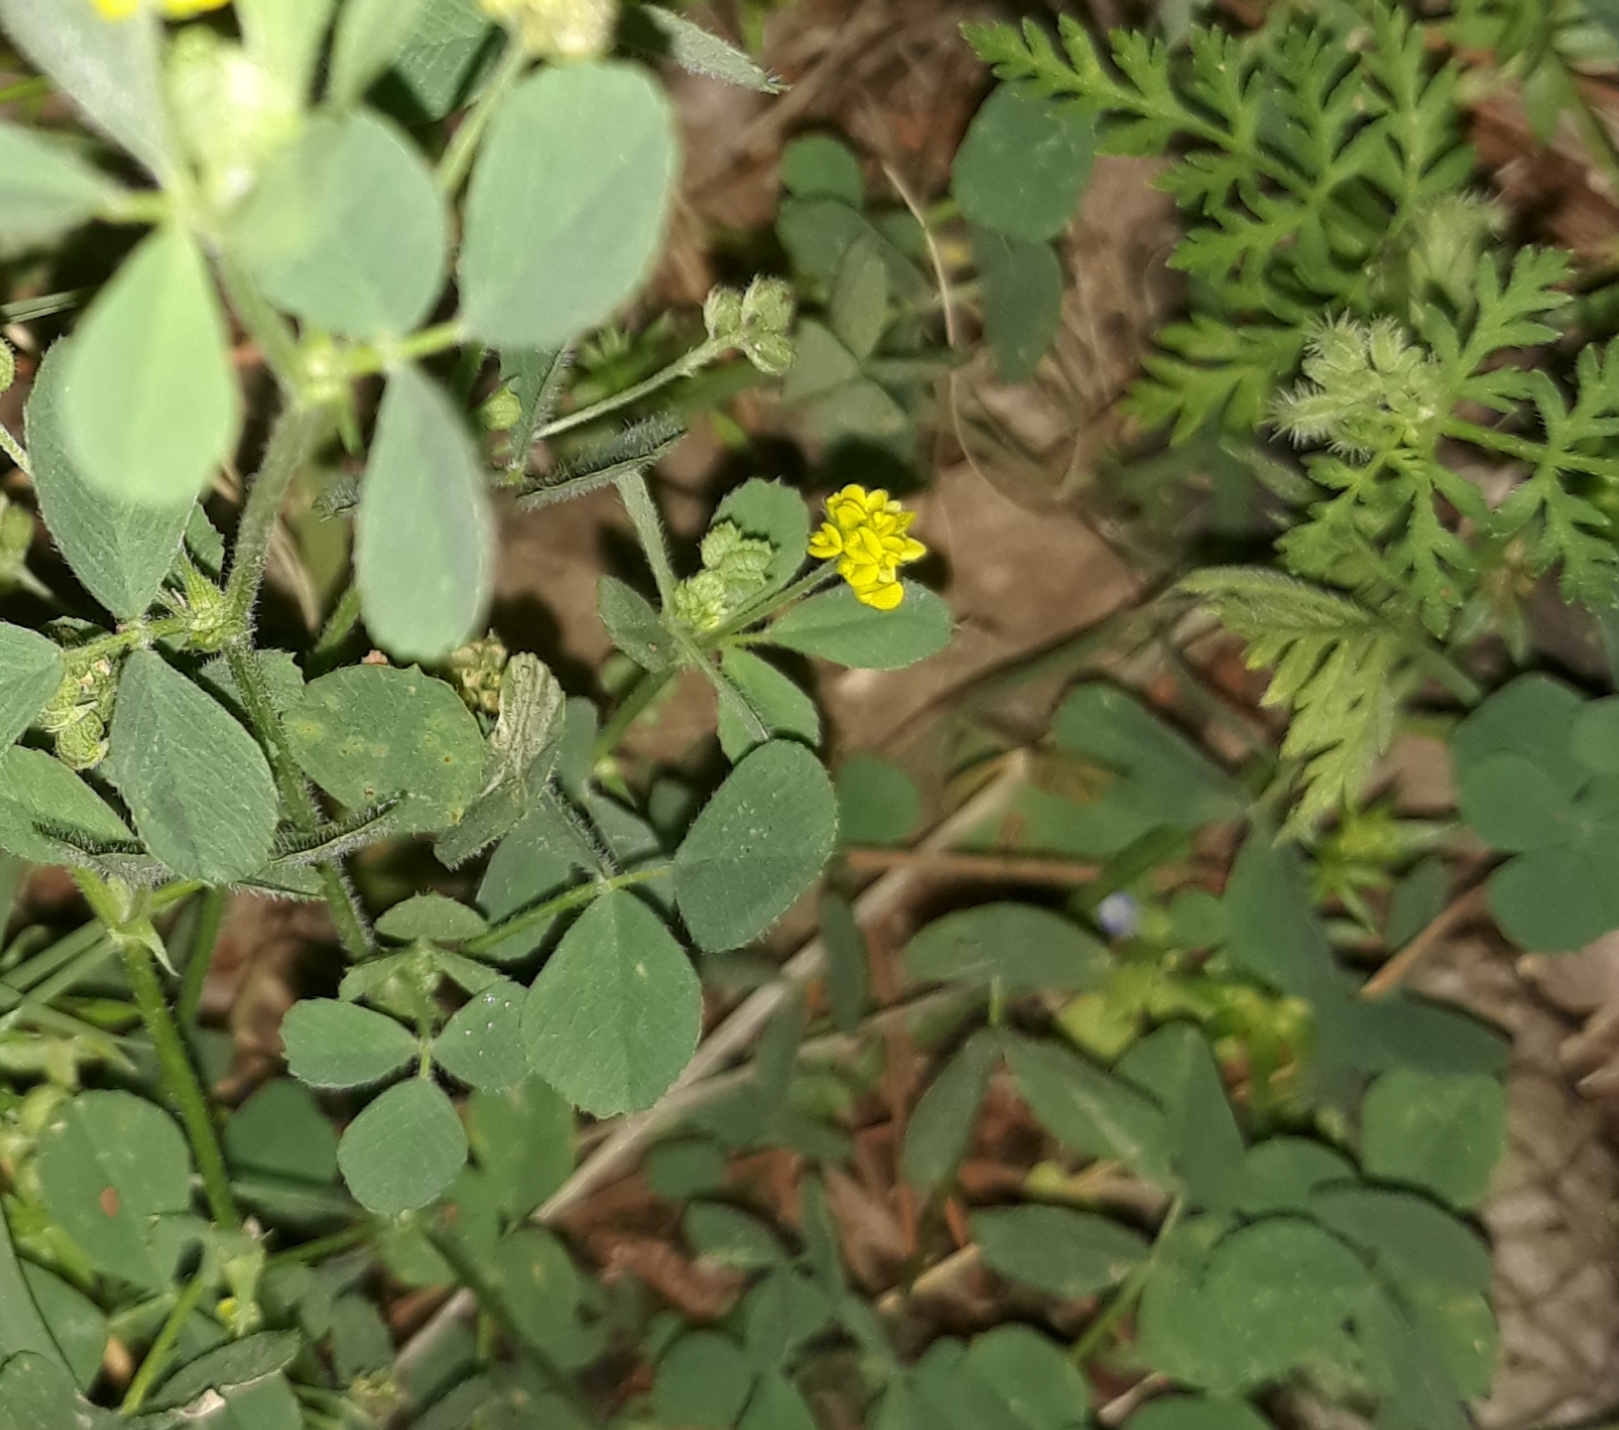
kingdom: Plantae
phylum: Tracheophyta
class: Magnoliopsida
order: Fabales
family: Fabaceae
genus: Medicago
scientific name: Medicago lupulina
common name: Black medick
